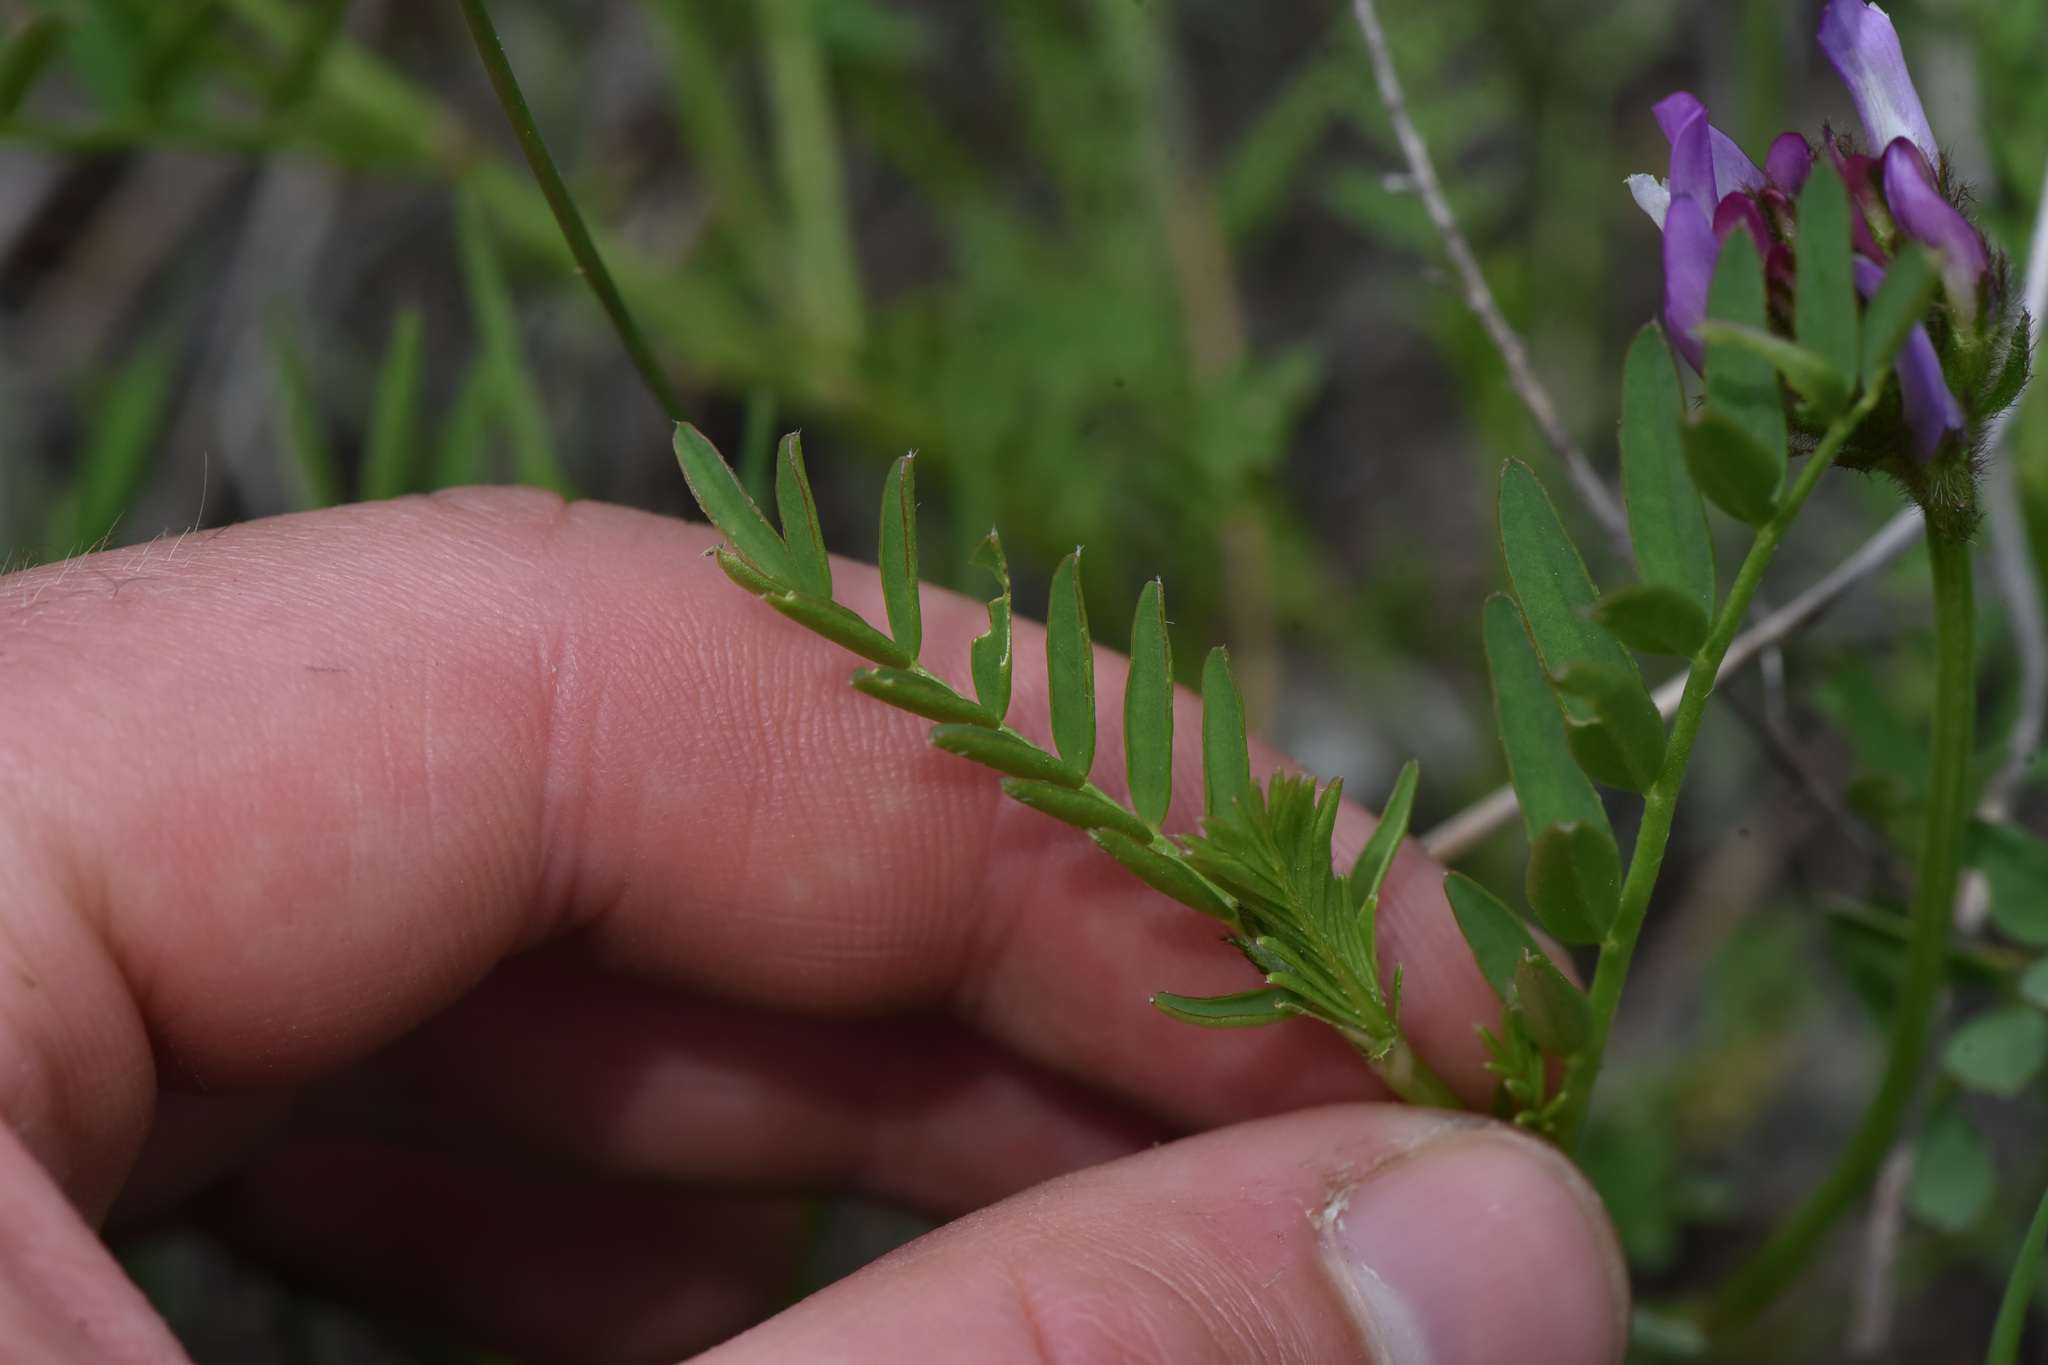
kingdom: Plantae
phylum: Tracheophyta
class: Magnoliopsida
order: Fabales
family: Fabaceae
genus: Astragalus
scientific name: Astragalus agrestis
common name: Field milk-vetch
